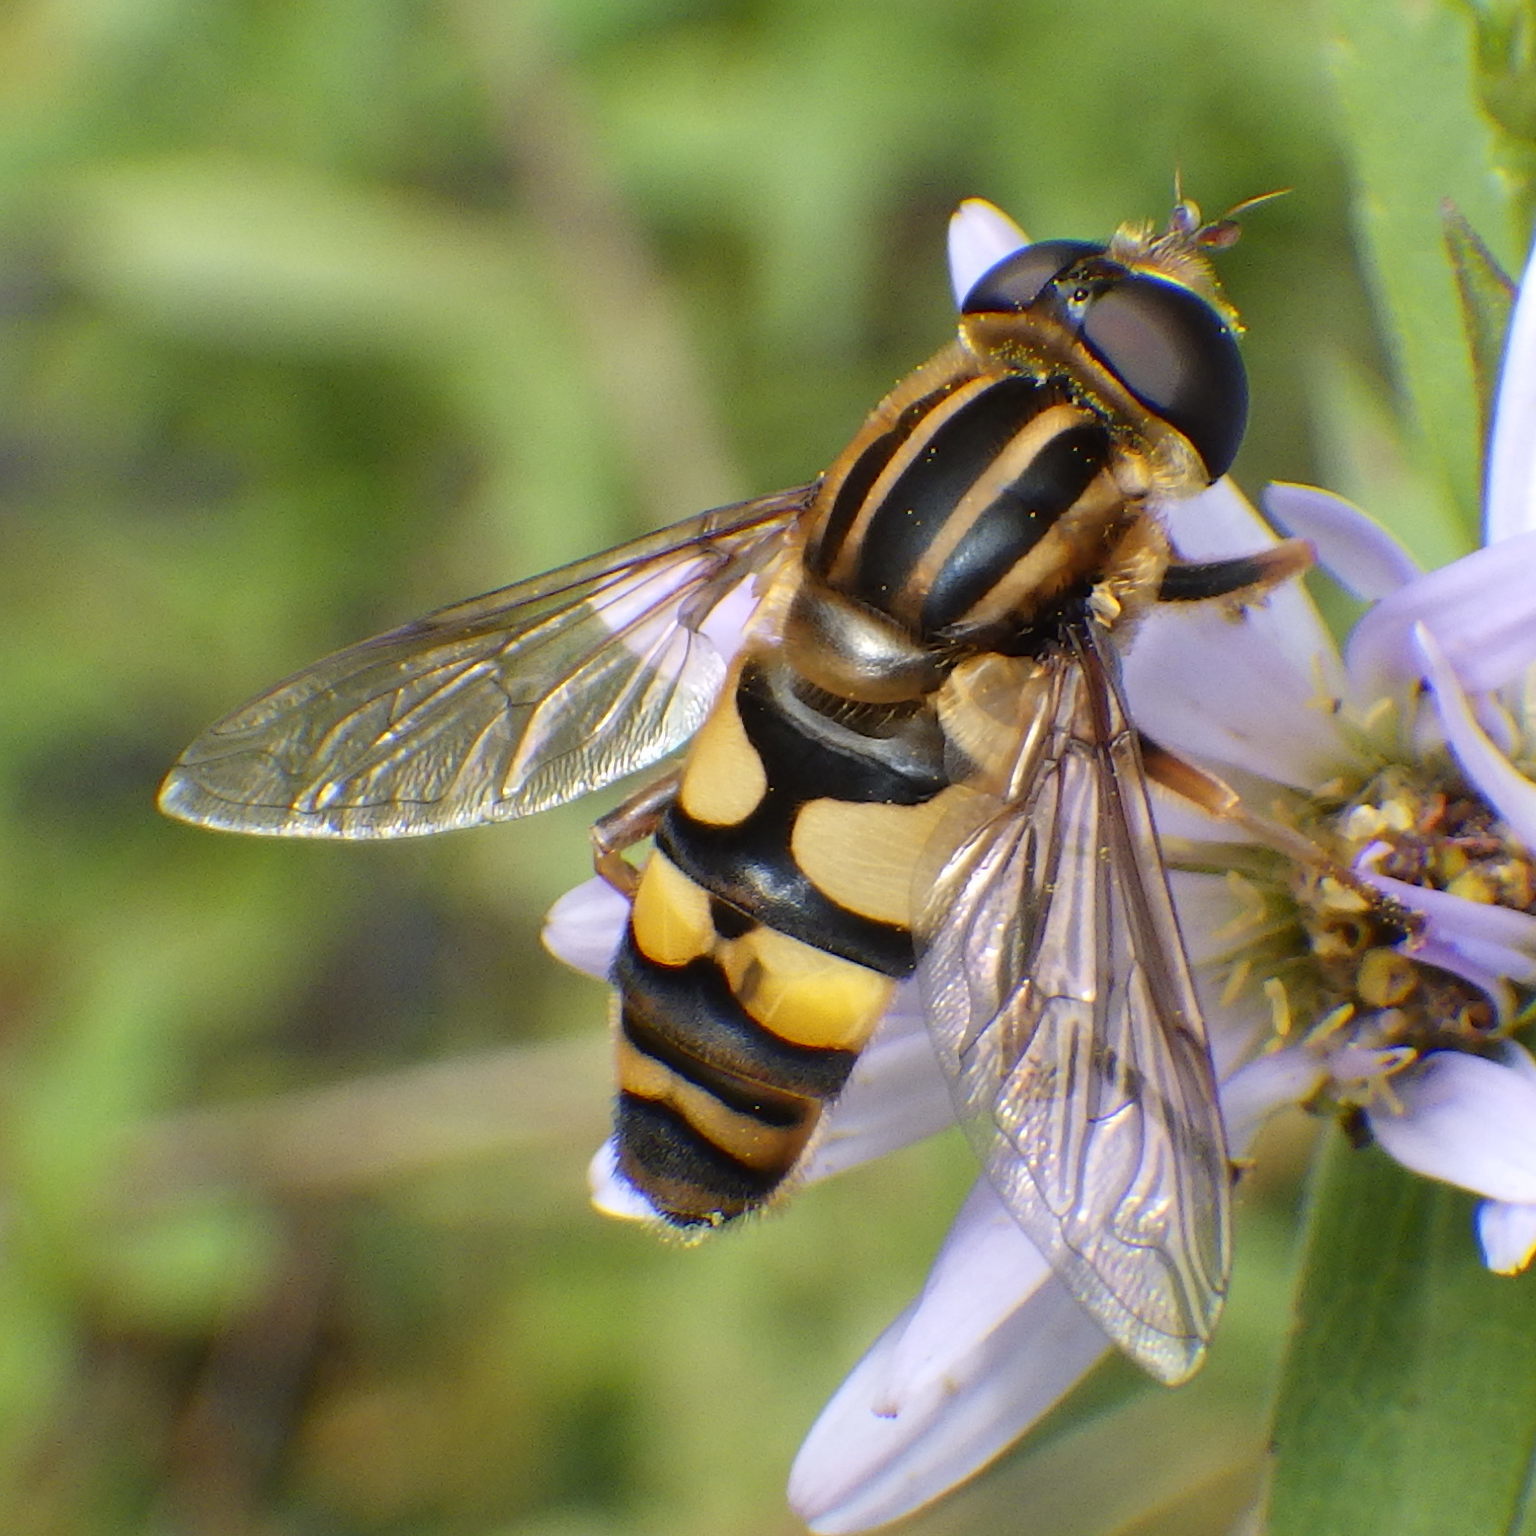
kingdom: Animalia
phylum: Arthropoda
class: Insecta
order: Diptera
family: Syrphidae
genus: Helophilus
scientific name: Helophilus fasciatus
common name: Narrow-headed marsh fly
